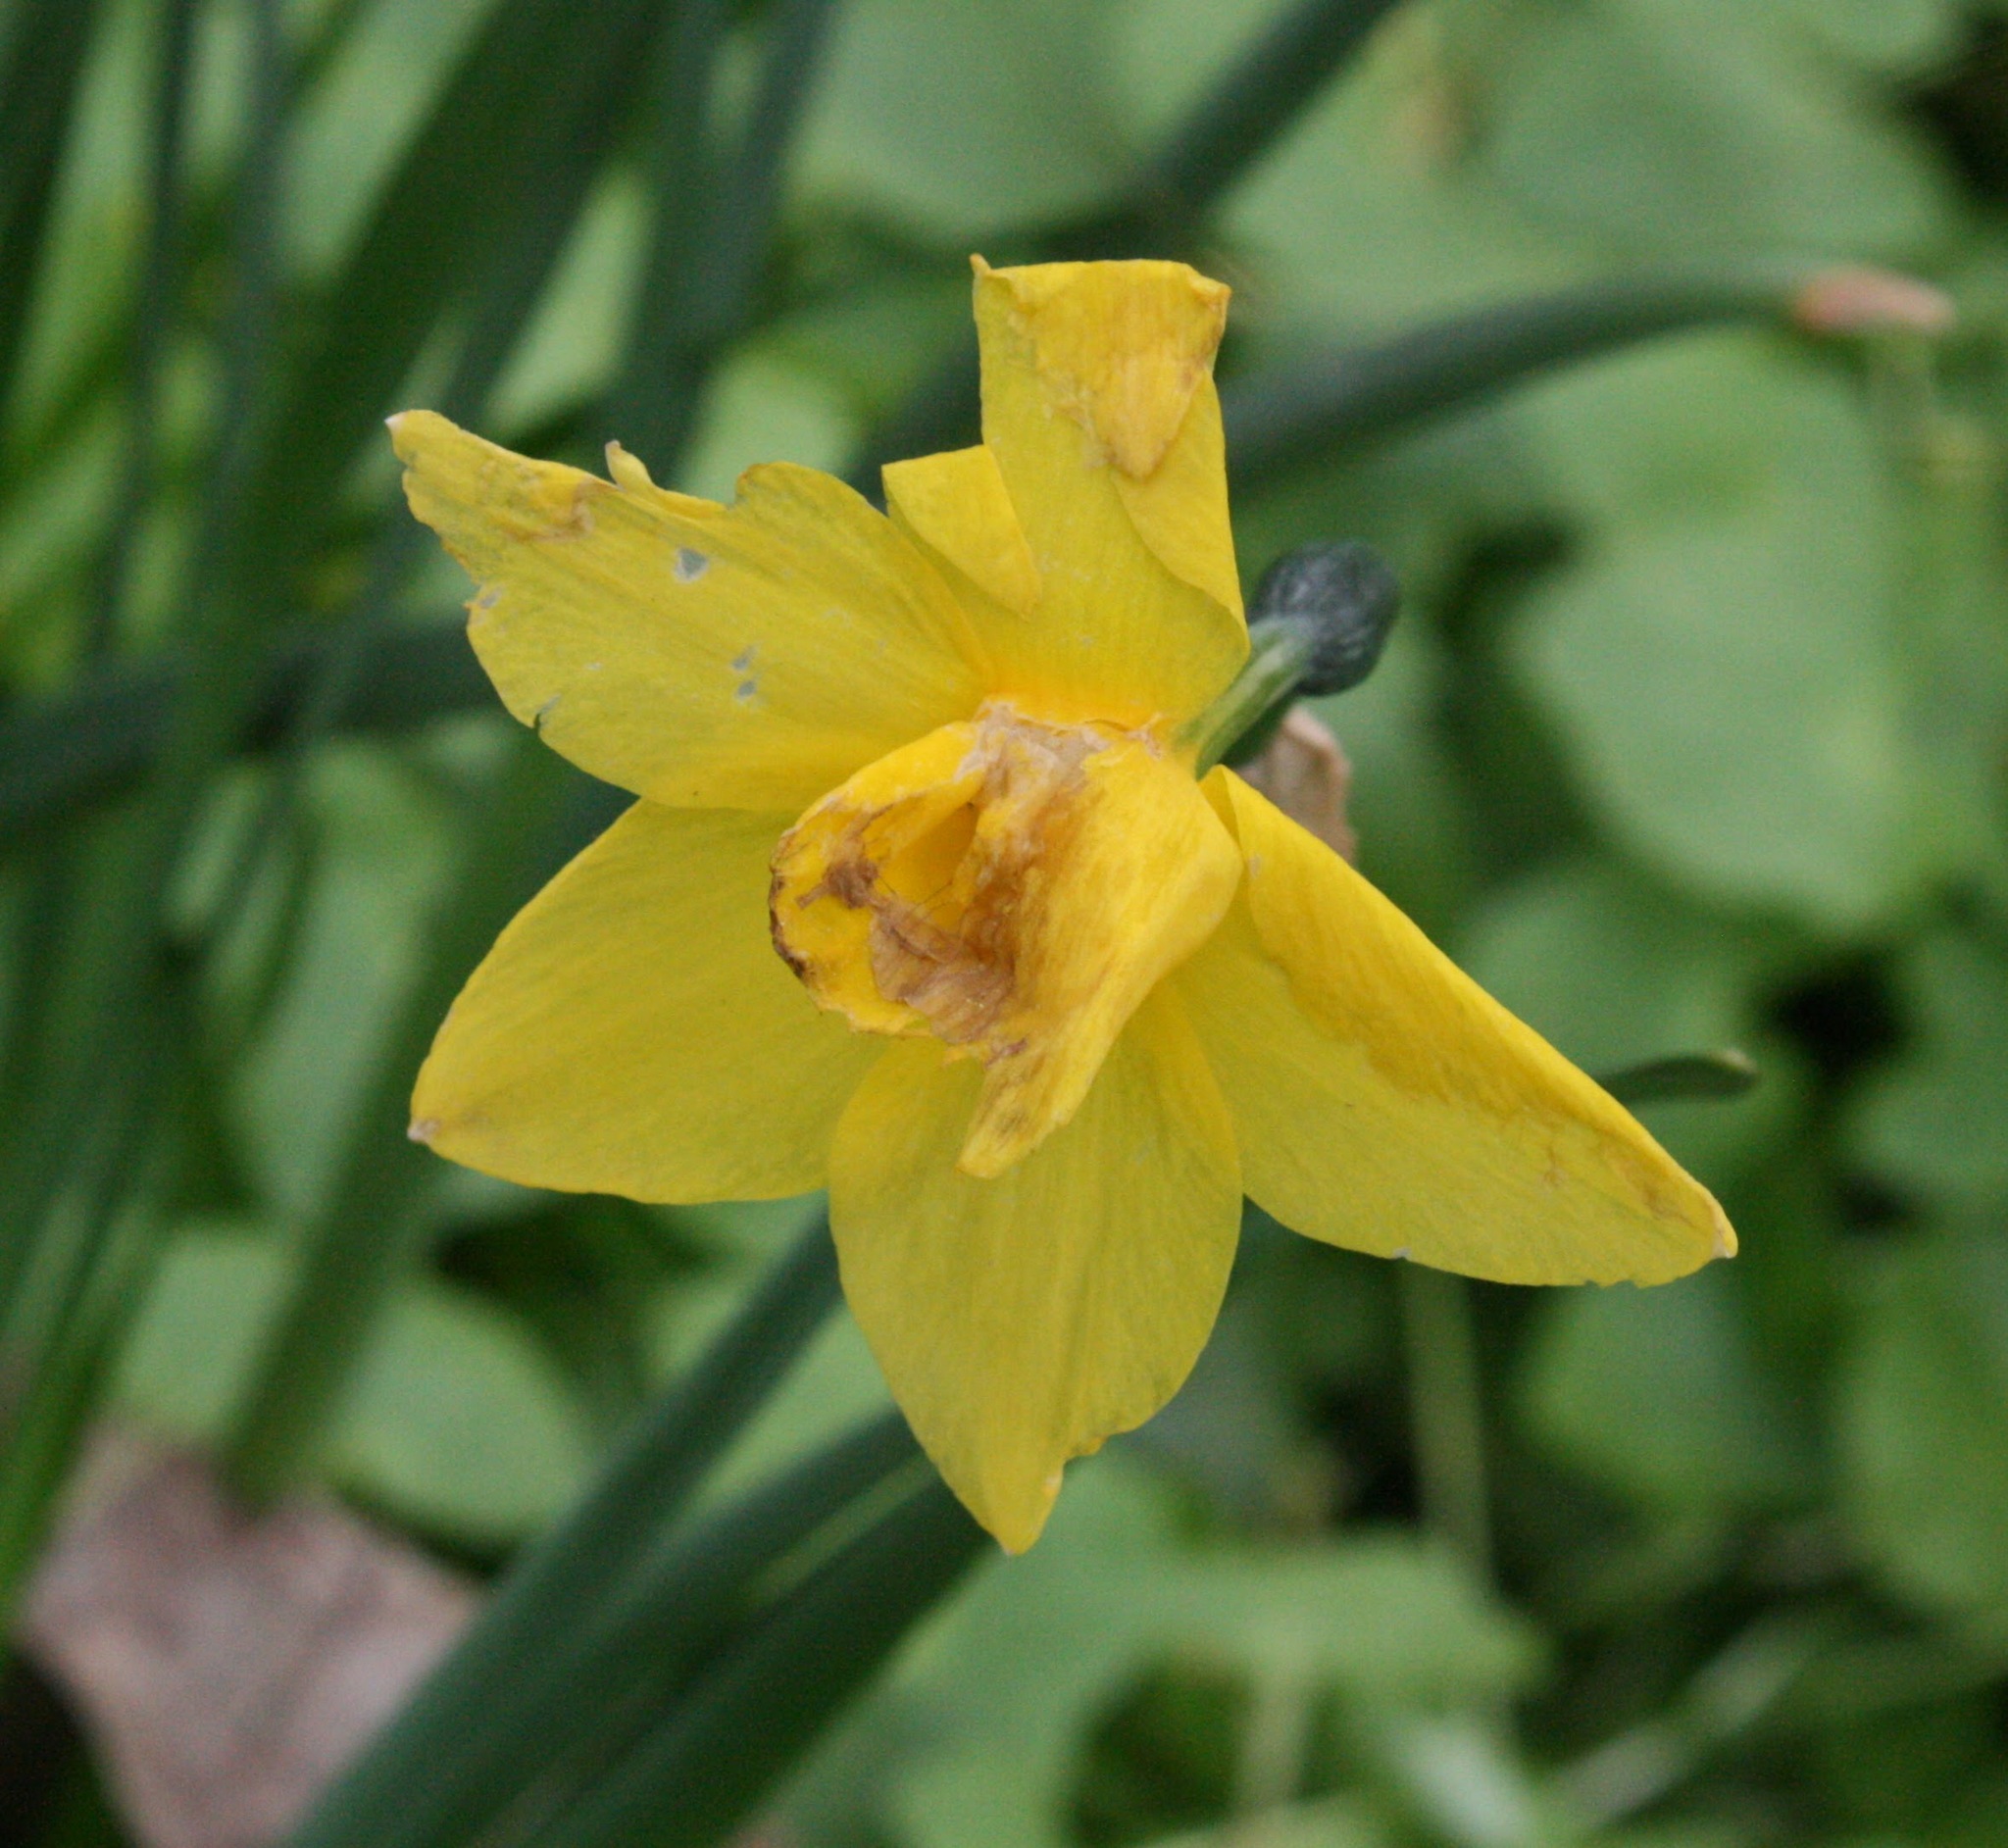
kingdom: Plantae
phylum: Tracheophyta
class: Liliopsida
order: Asparagales
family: Amaryllidaceae
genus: Narcissus
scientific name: Narcissus pseudonarcissus
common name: Daffodil
